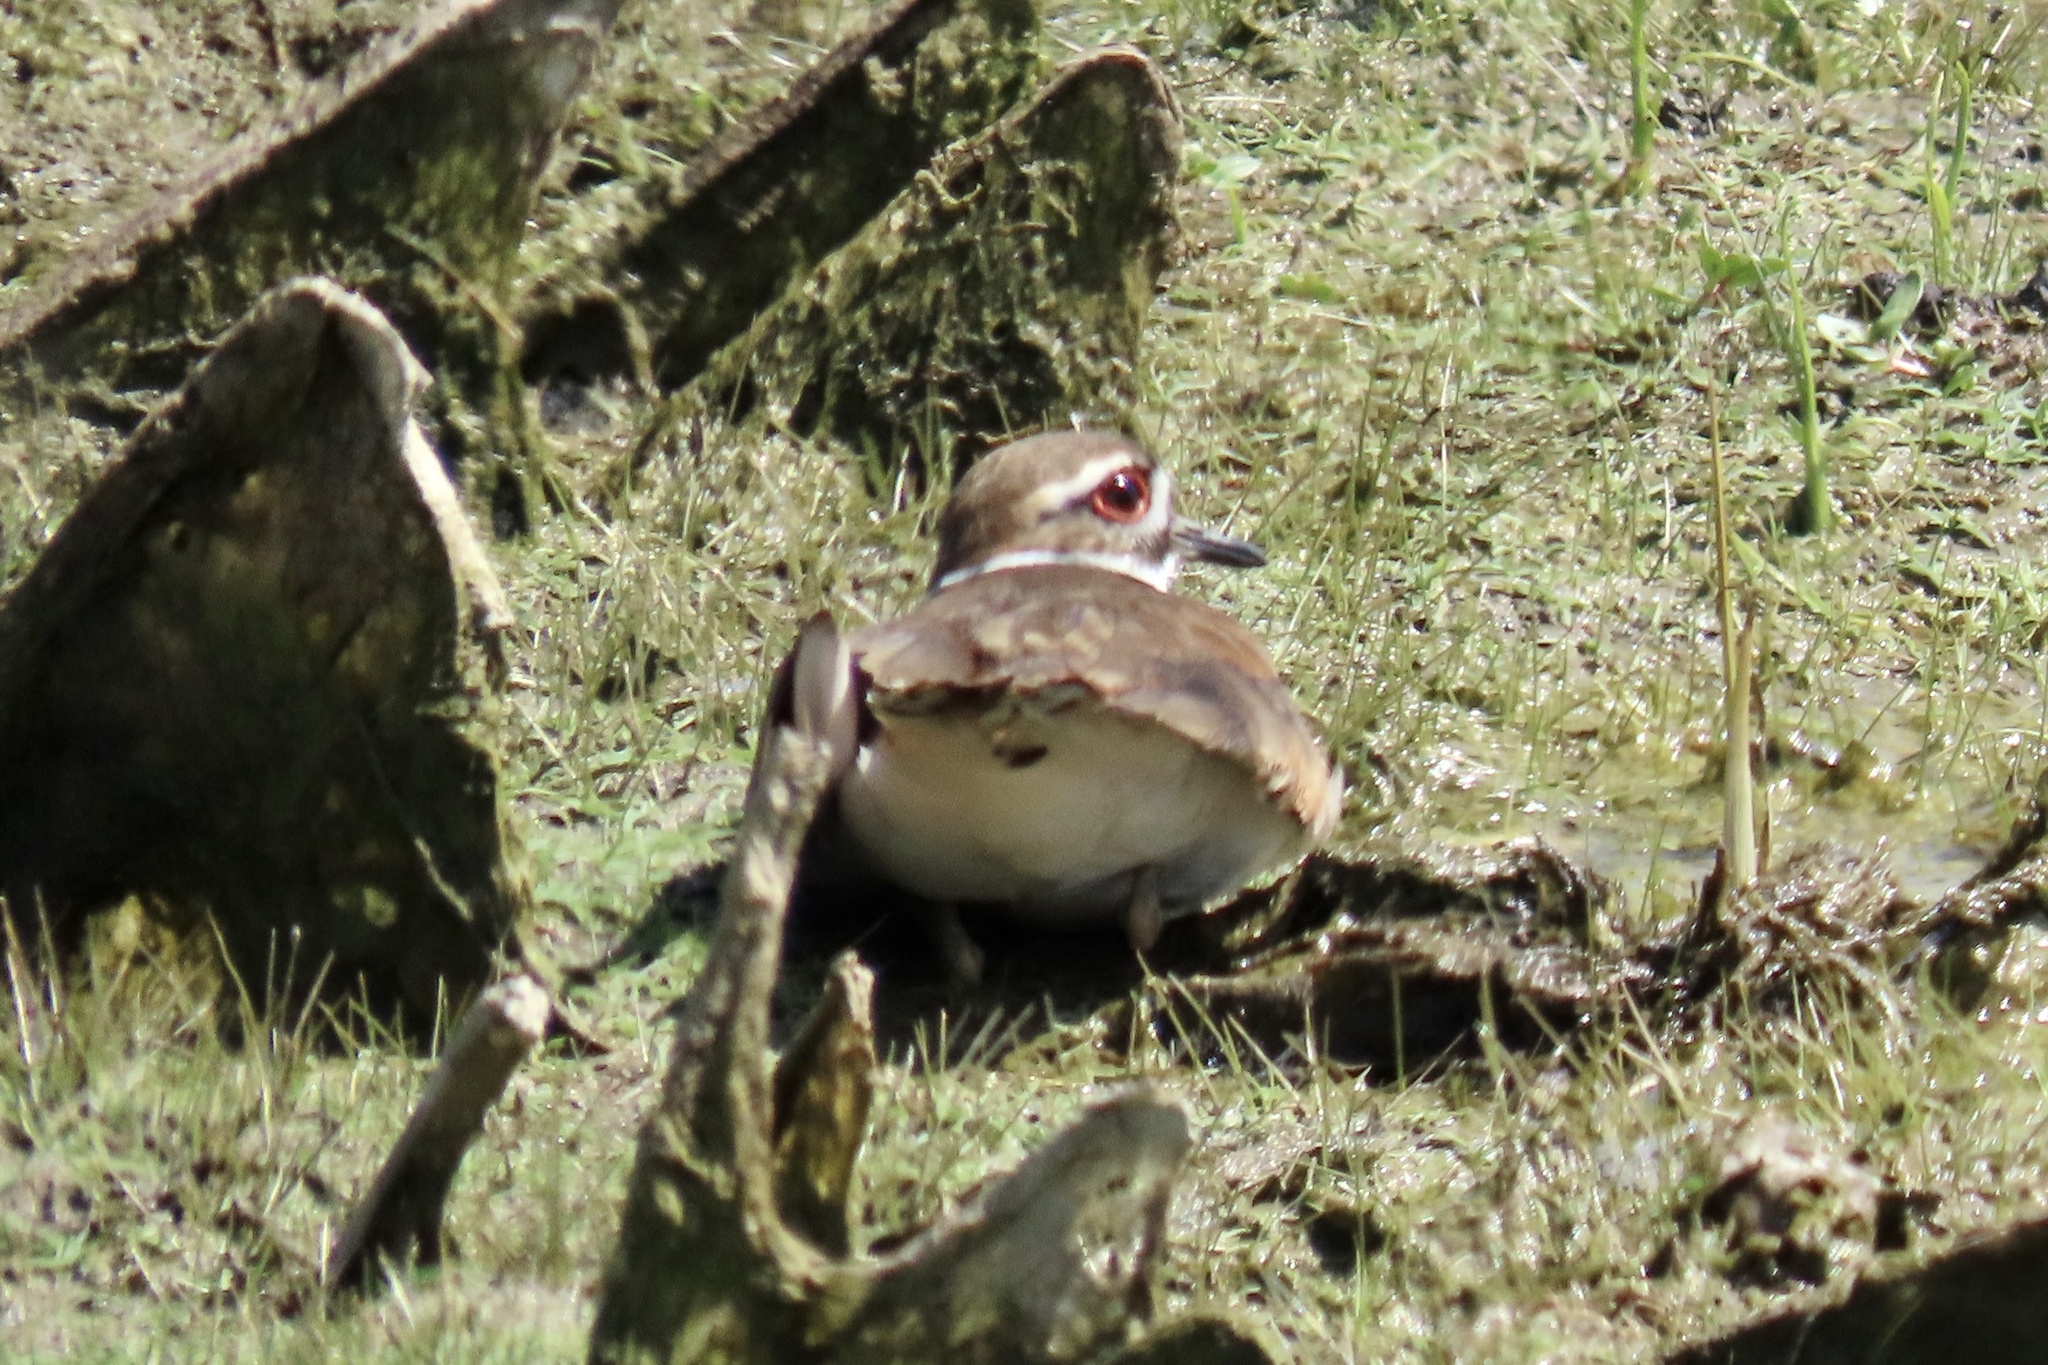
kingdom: Animalia
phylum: Chordata
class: Aves
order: Charadriiformes
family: Charadriidae
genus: Charadrius
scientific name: Charadrius vociferus
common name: Killdeer
